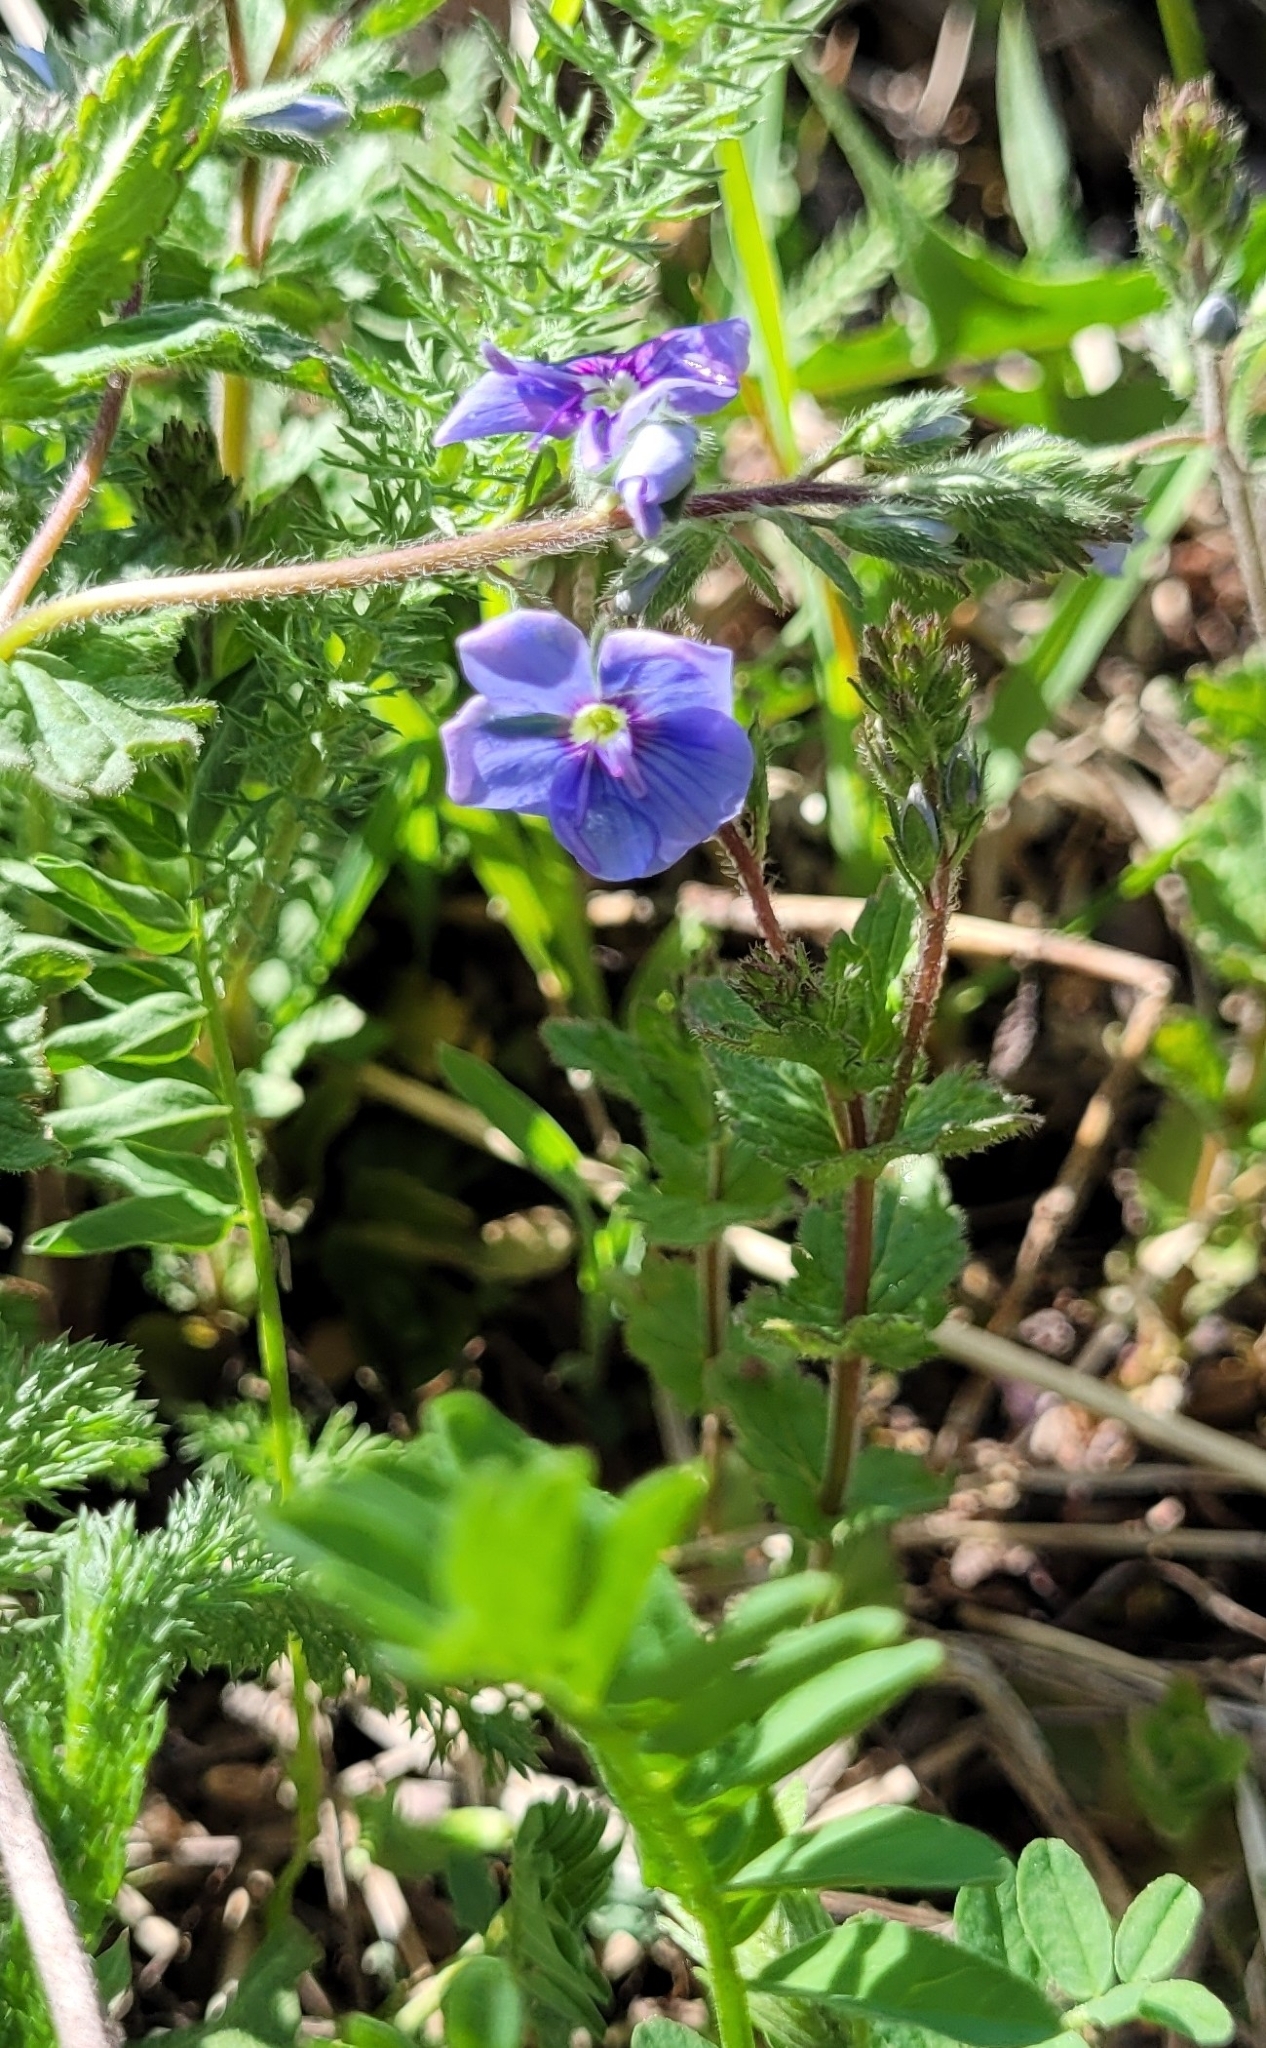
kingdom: Plantae
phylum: Tracheophyta
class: Magnoliopsida
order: Lamiales
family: Plantaginaceae
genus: Veronica
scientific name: Veronica chamaedrys
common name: Germander speedwell
